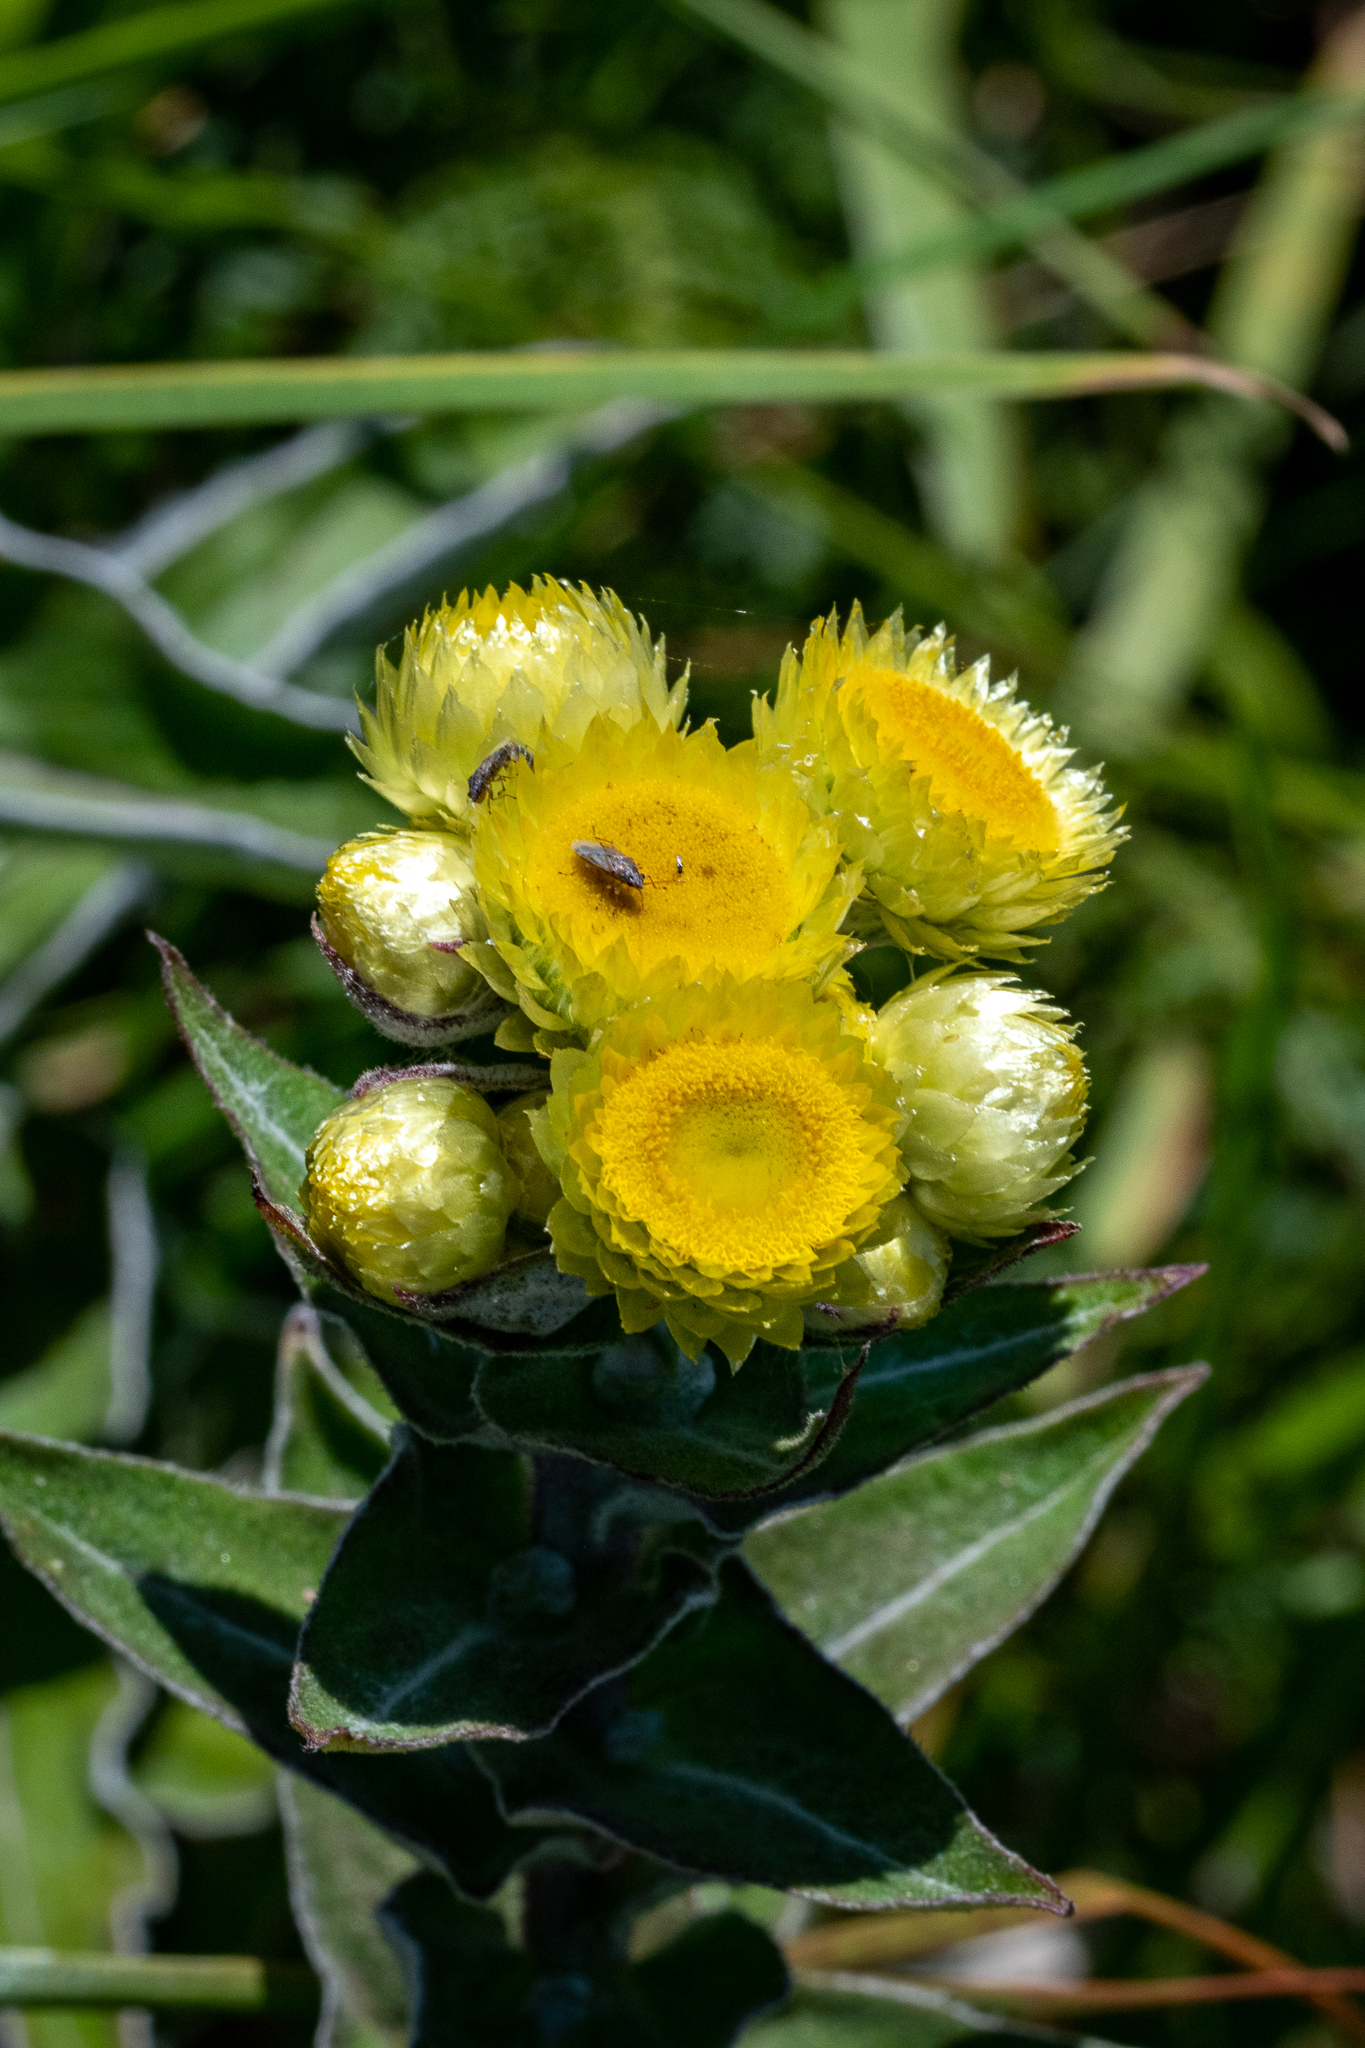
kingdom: Plantae
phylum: Tracheophyta
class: Magnoliopsida
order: Asterales
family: Asteraceae
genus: Helichrysum
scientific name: Helichrysum foetidum
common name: Stinking everlasting
